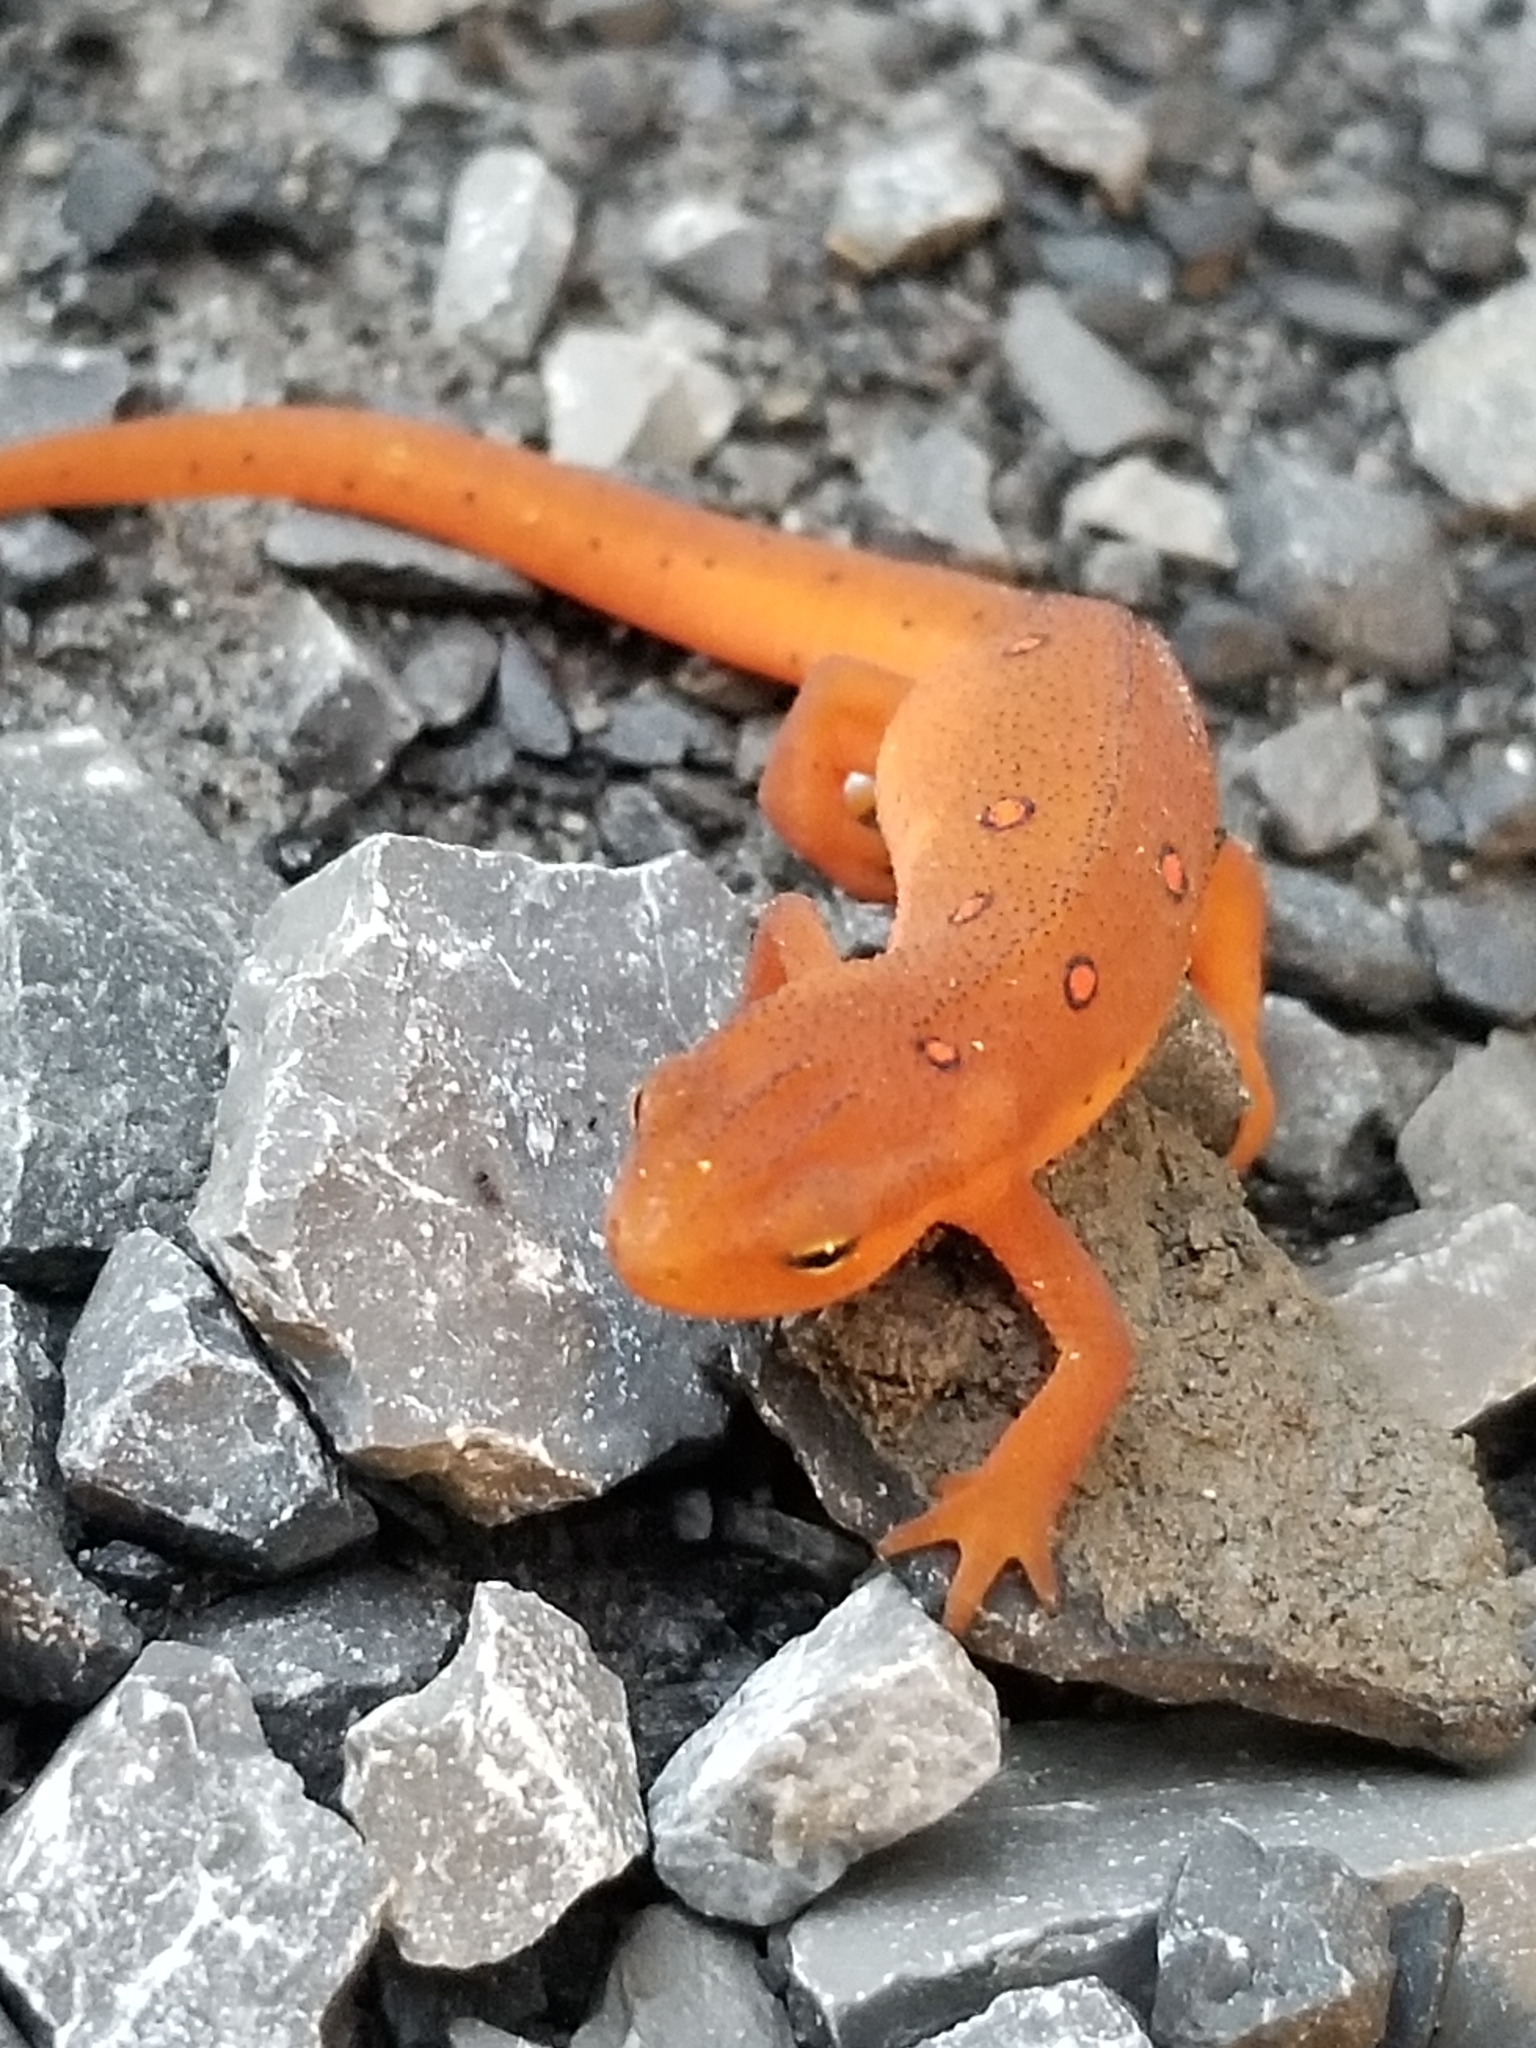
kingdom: Animalia
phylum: Chordata
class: Amphibia
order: Caudata
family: Salamandridae
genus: Notophthalmus
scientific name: Notophthalmus viridescens
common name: Eastern newt
